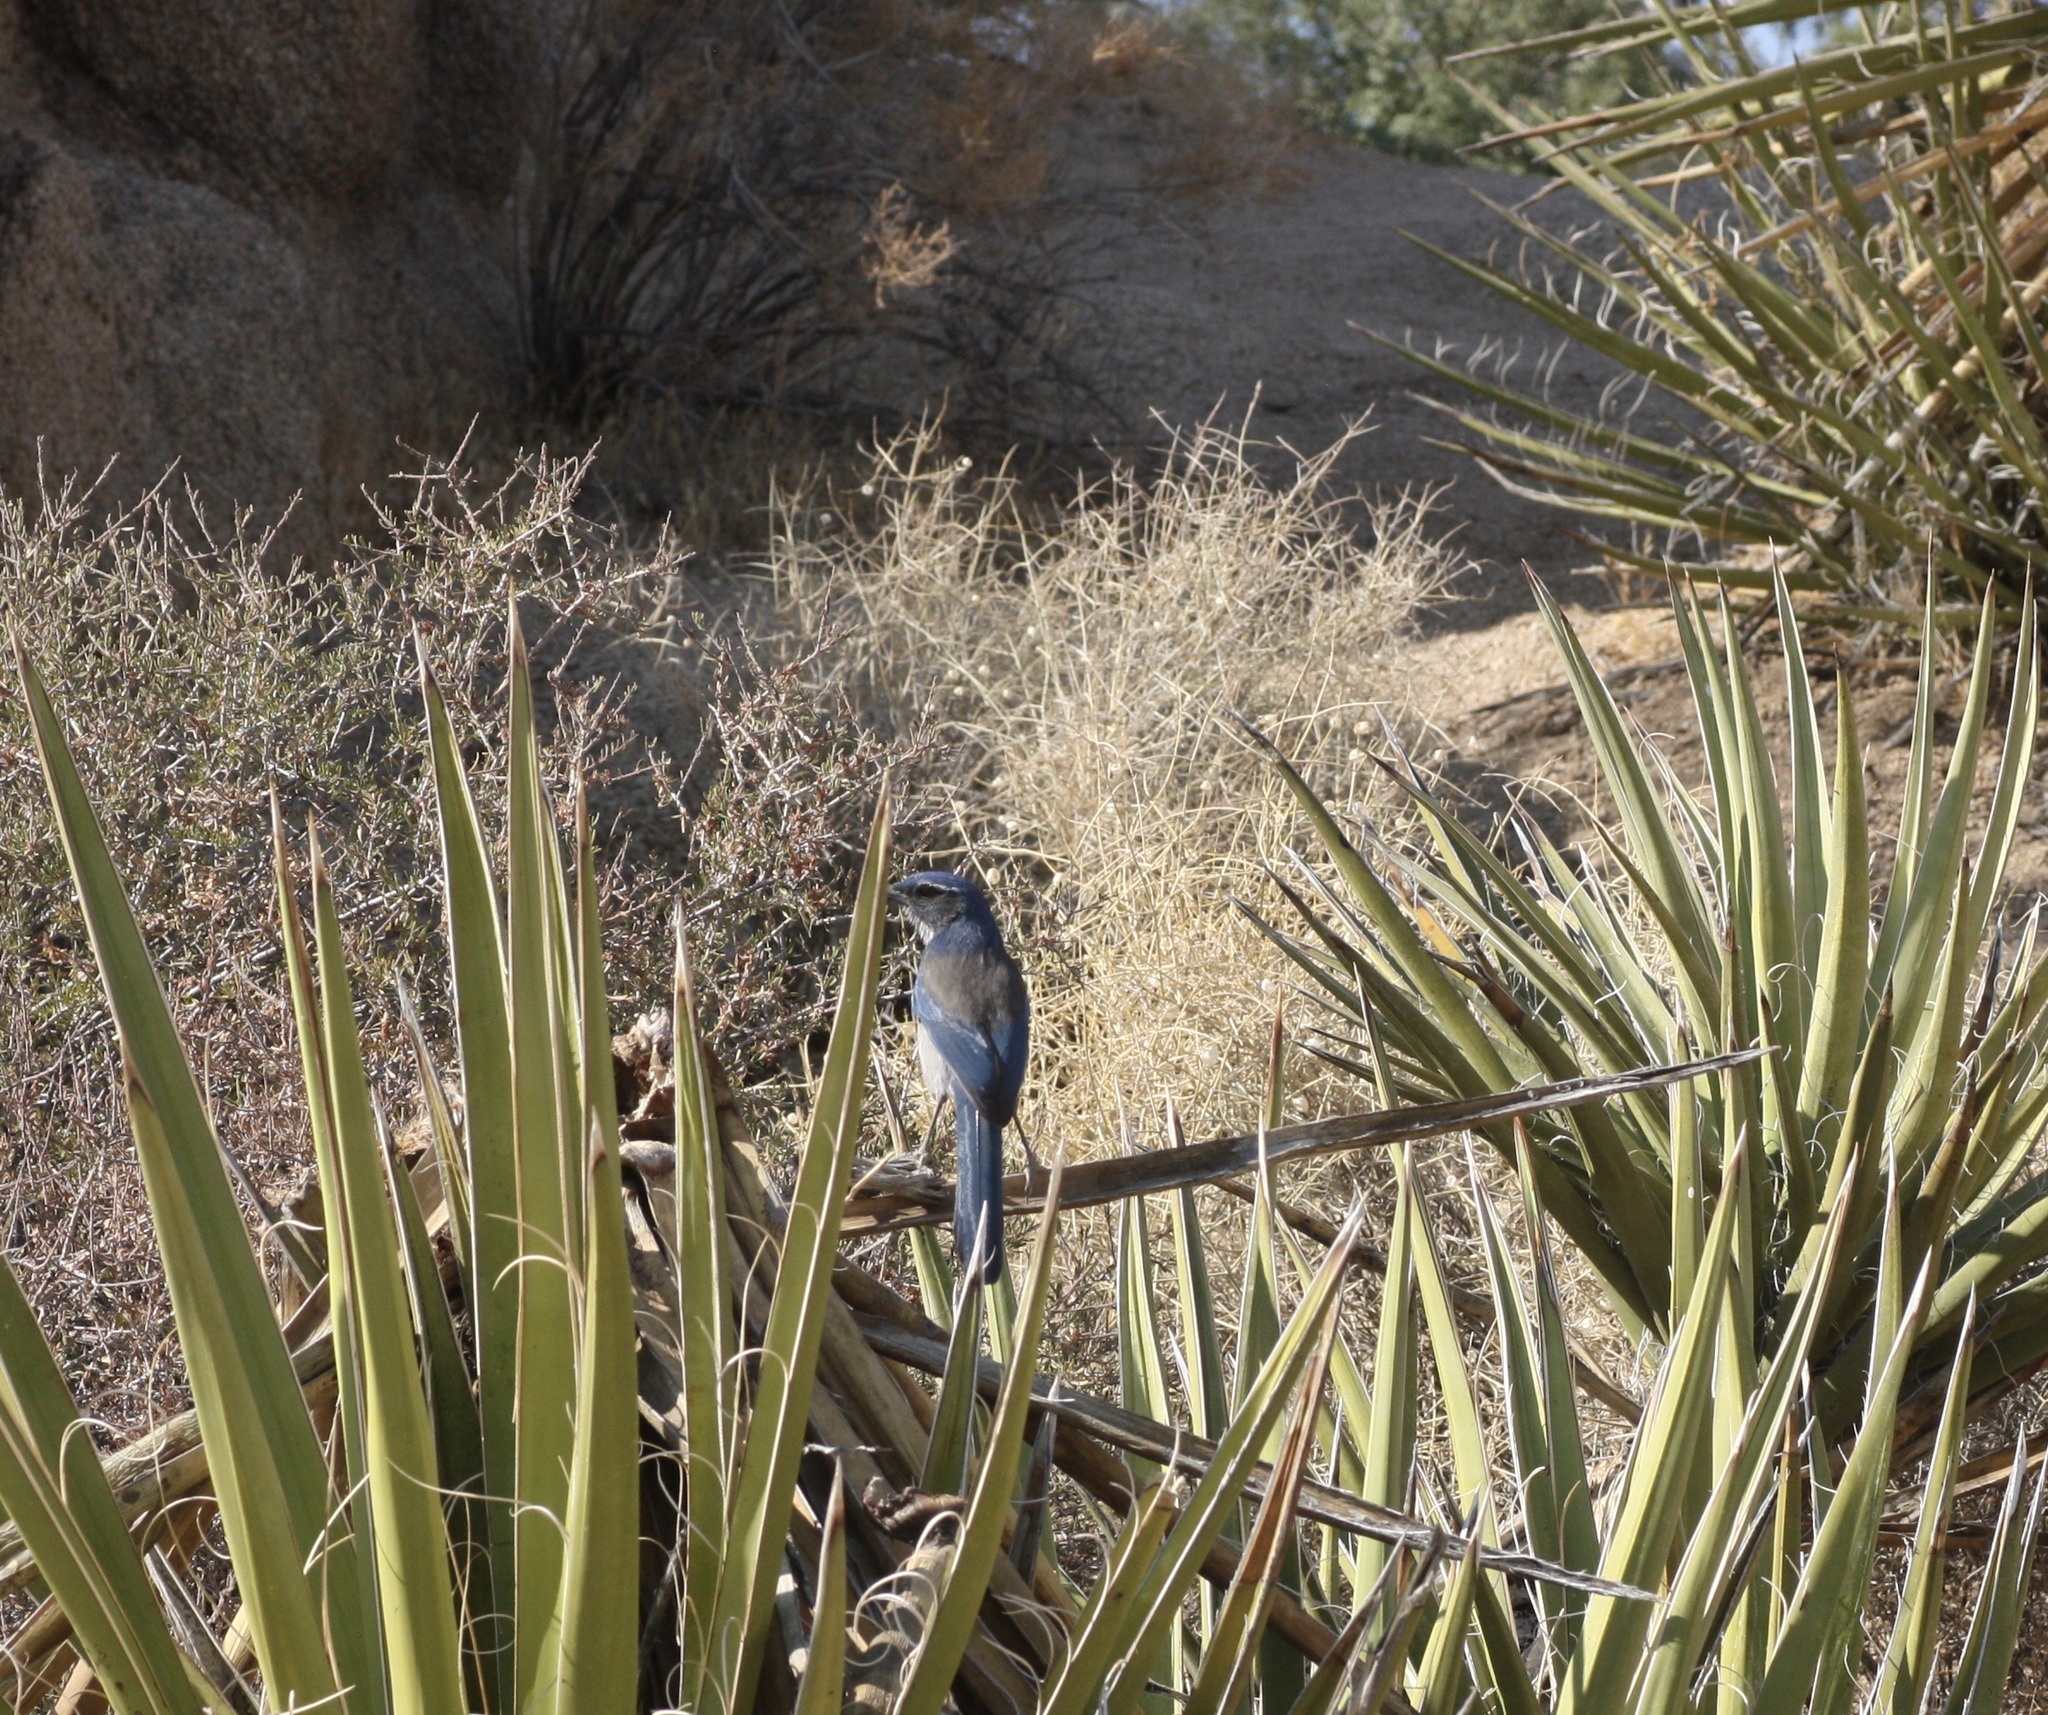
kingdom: Animalia
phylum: Chordata
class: Aves
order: Passeriformes
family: Corvidae
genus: Aphelocoma
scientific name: Aphelocoma californica
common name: California scrub-jay
